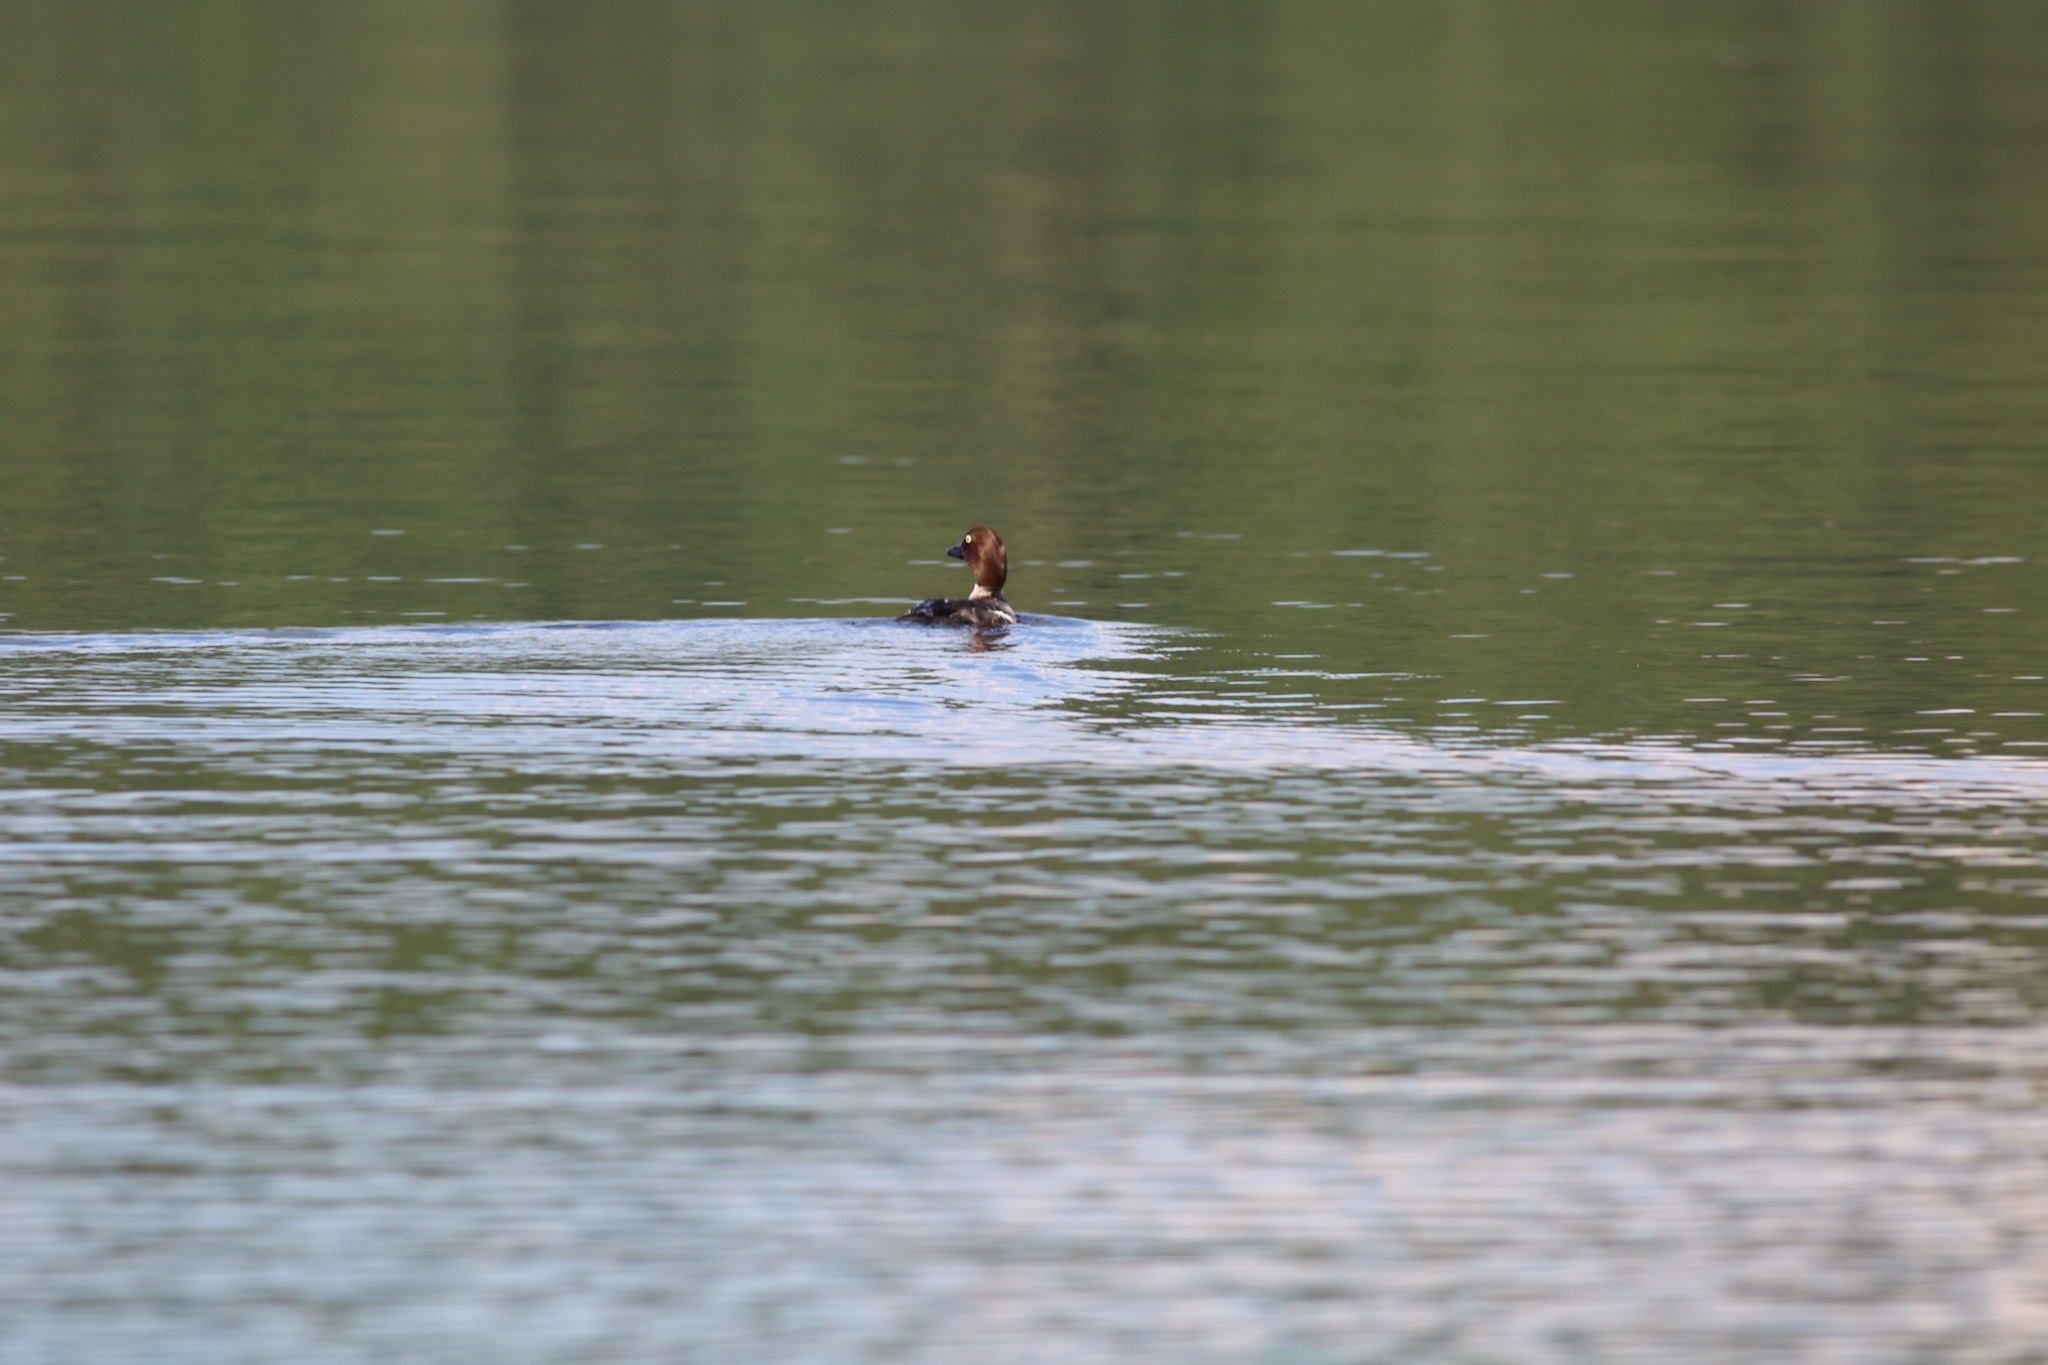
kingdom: Animalia
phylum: Chordata
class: Aves
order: Anseriformes
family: Anatidae
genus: Bucephala
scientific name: Bucephala clangula
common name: Common goldeneye
